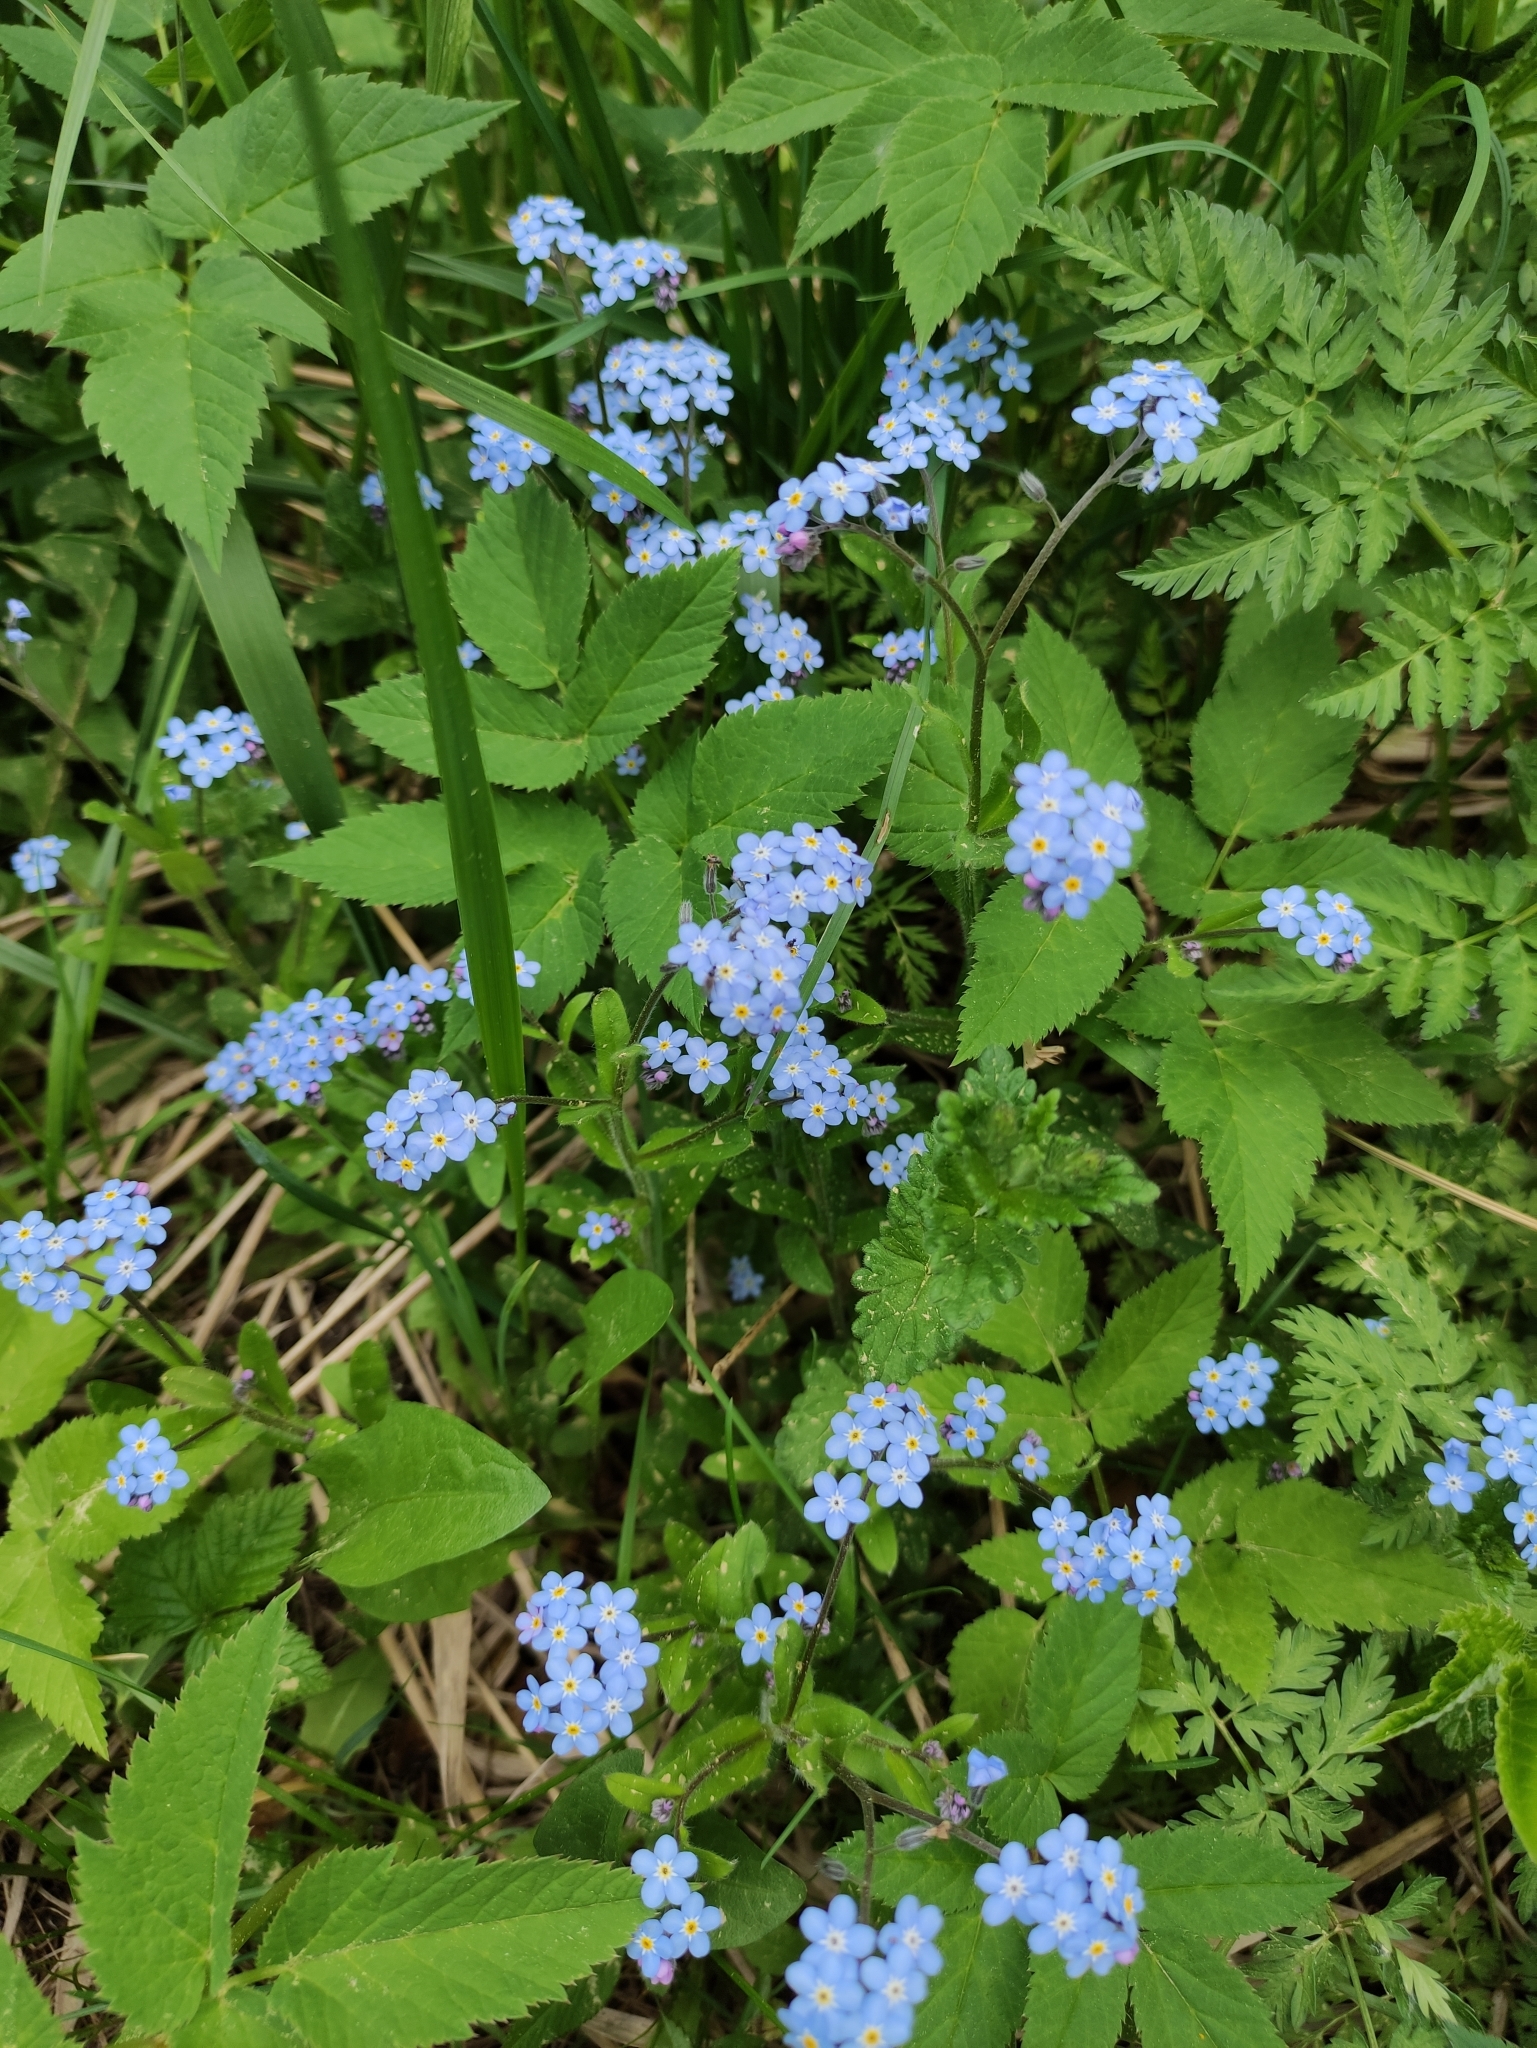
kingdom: Plantae
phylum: Tracheophyta
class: Magnoliopsida
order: Boraginales
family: Boraginaceae
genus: Myosotis
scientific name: Myosotis sylvatica
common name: Wood forget-me-not
